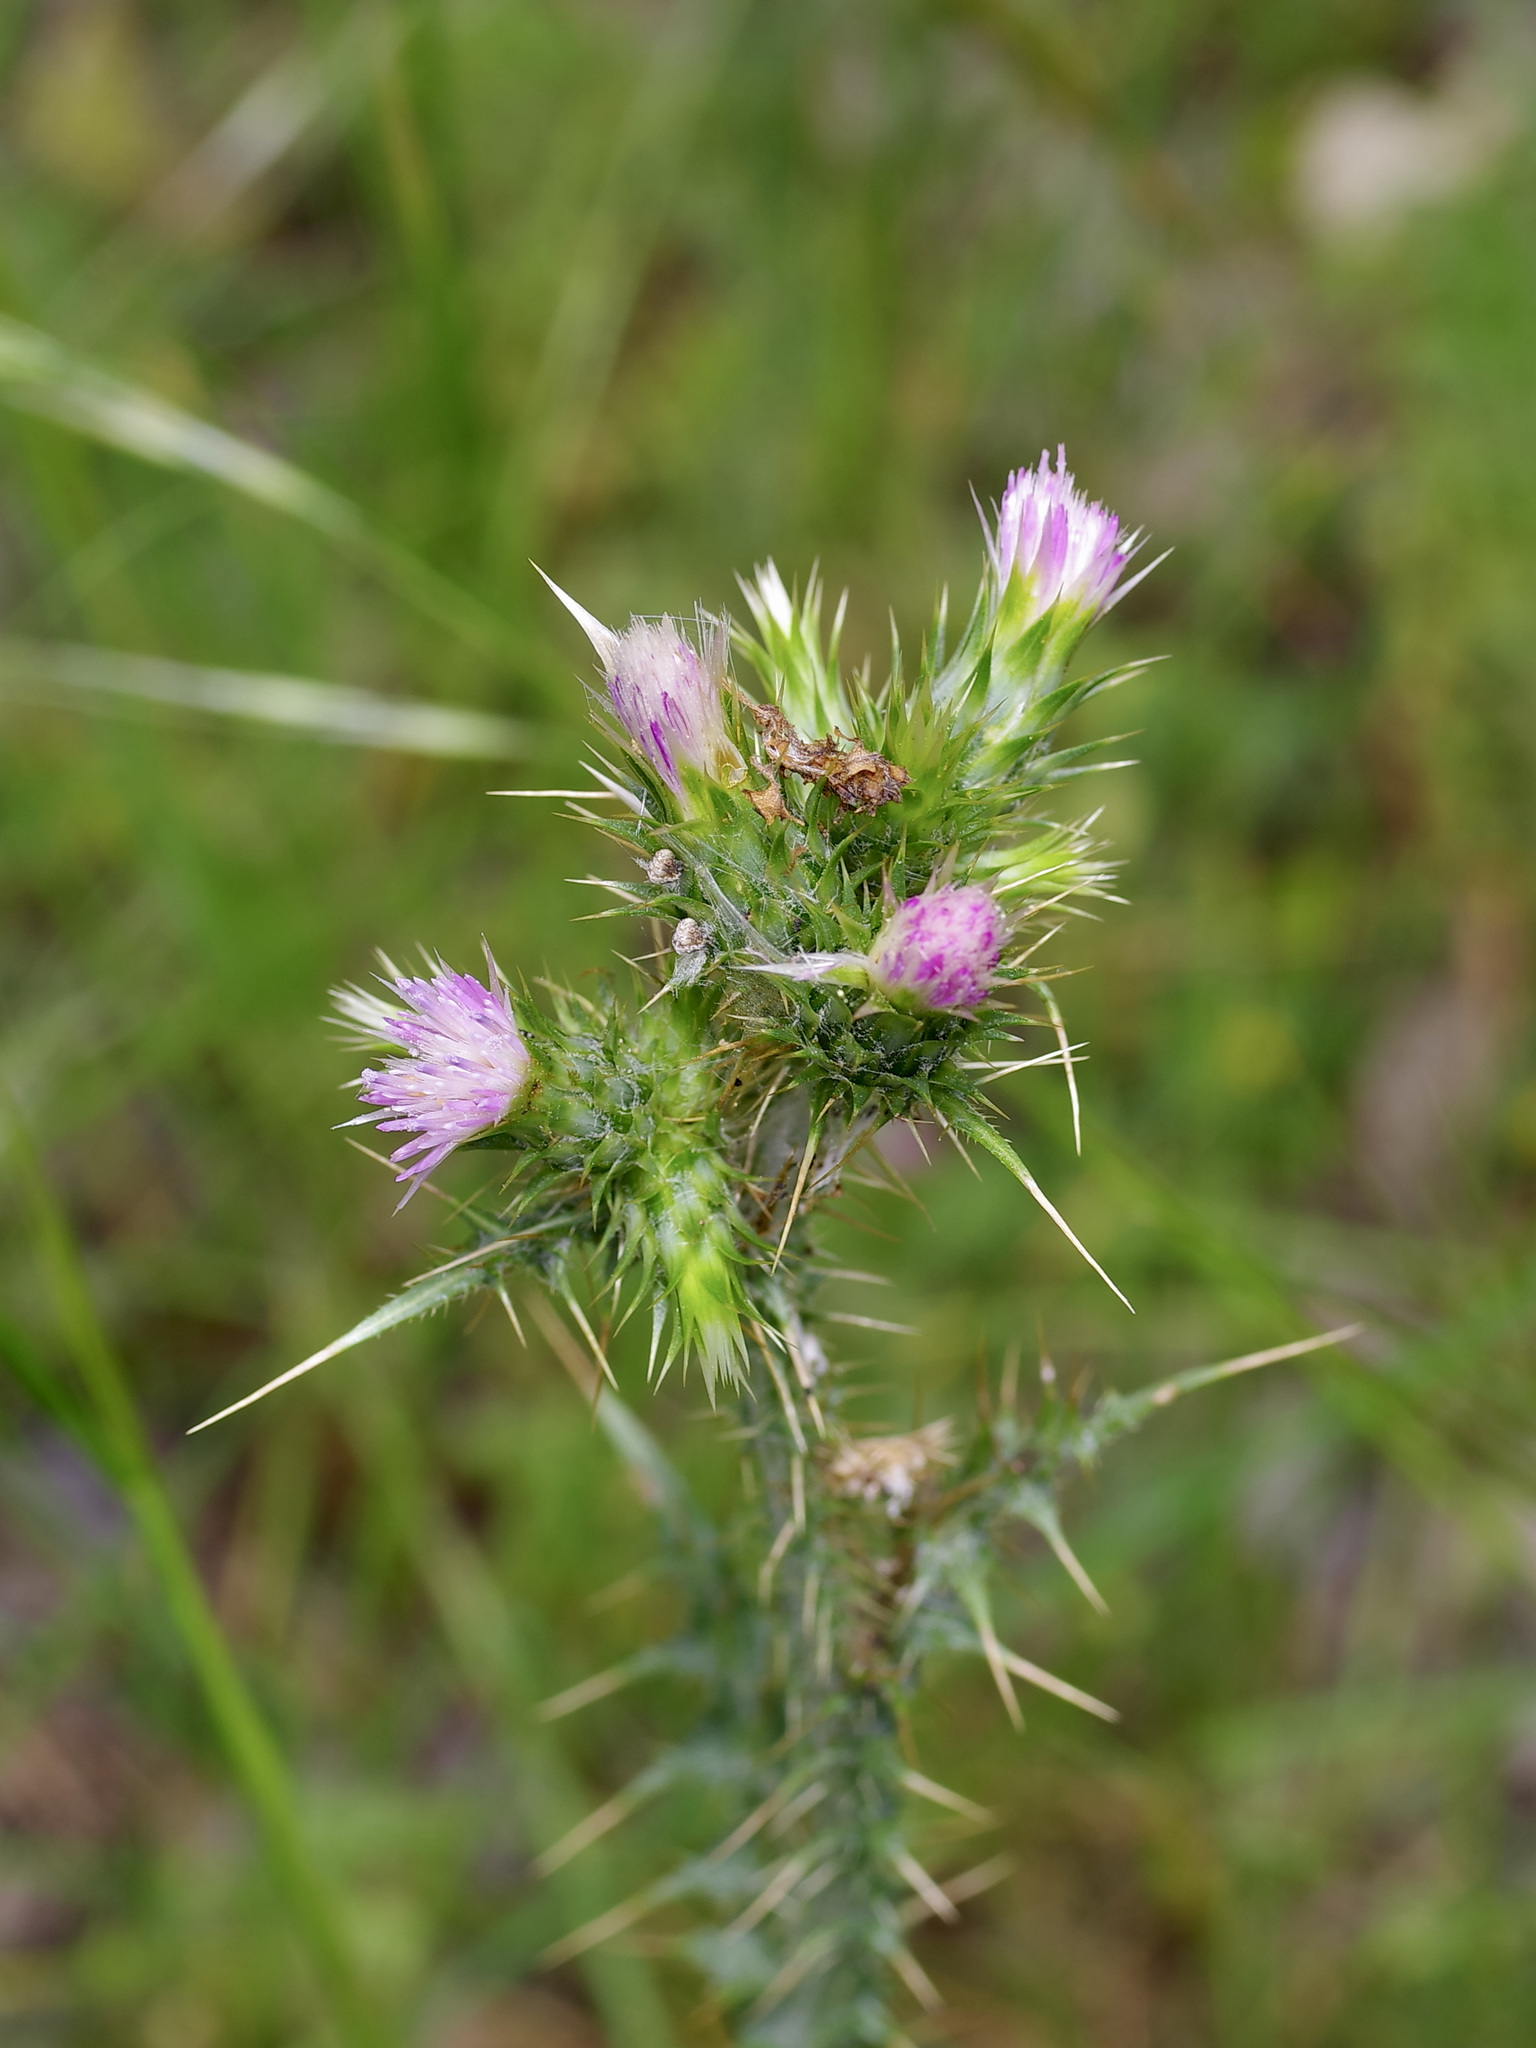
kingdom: Plantae
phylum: Tracheophyta
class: Magnoliopsida
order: Asterales
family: Asteraceae
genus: Carduus
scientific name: Carduus tenuiflorus
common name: Slender thistle
